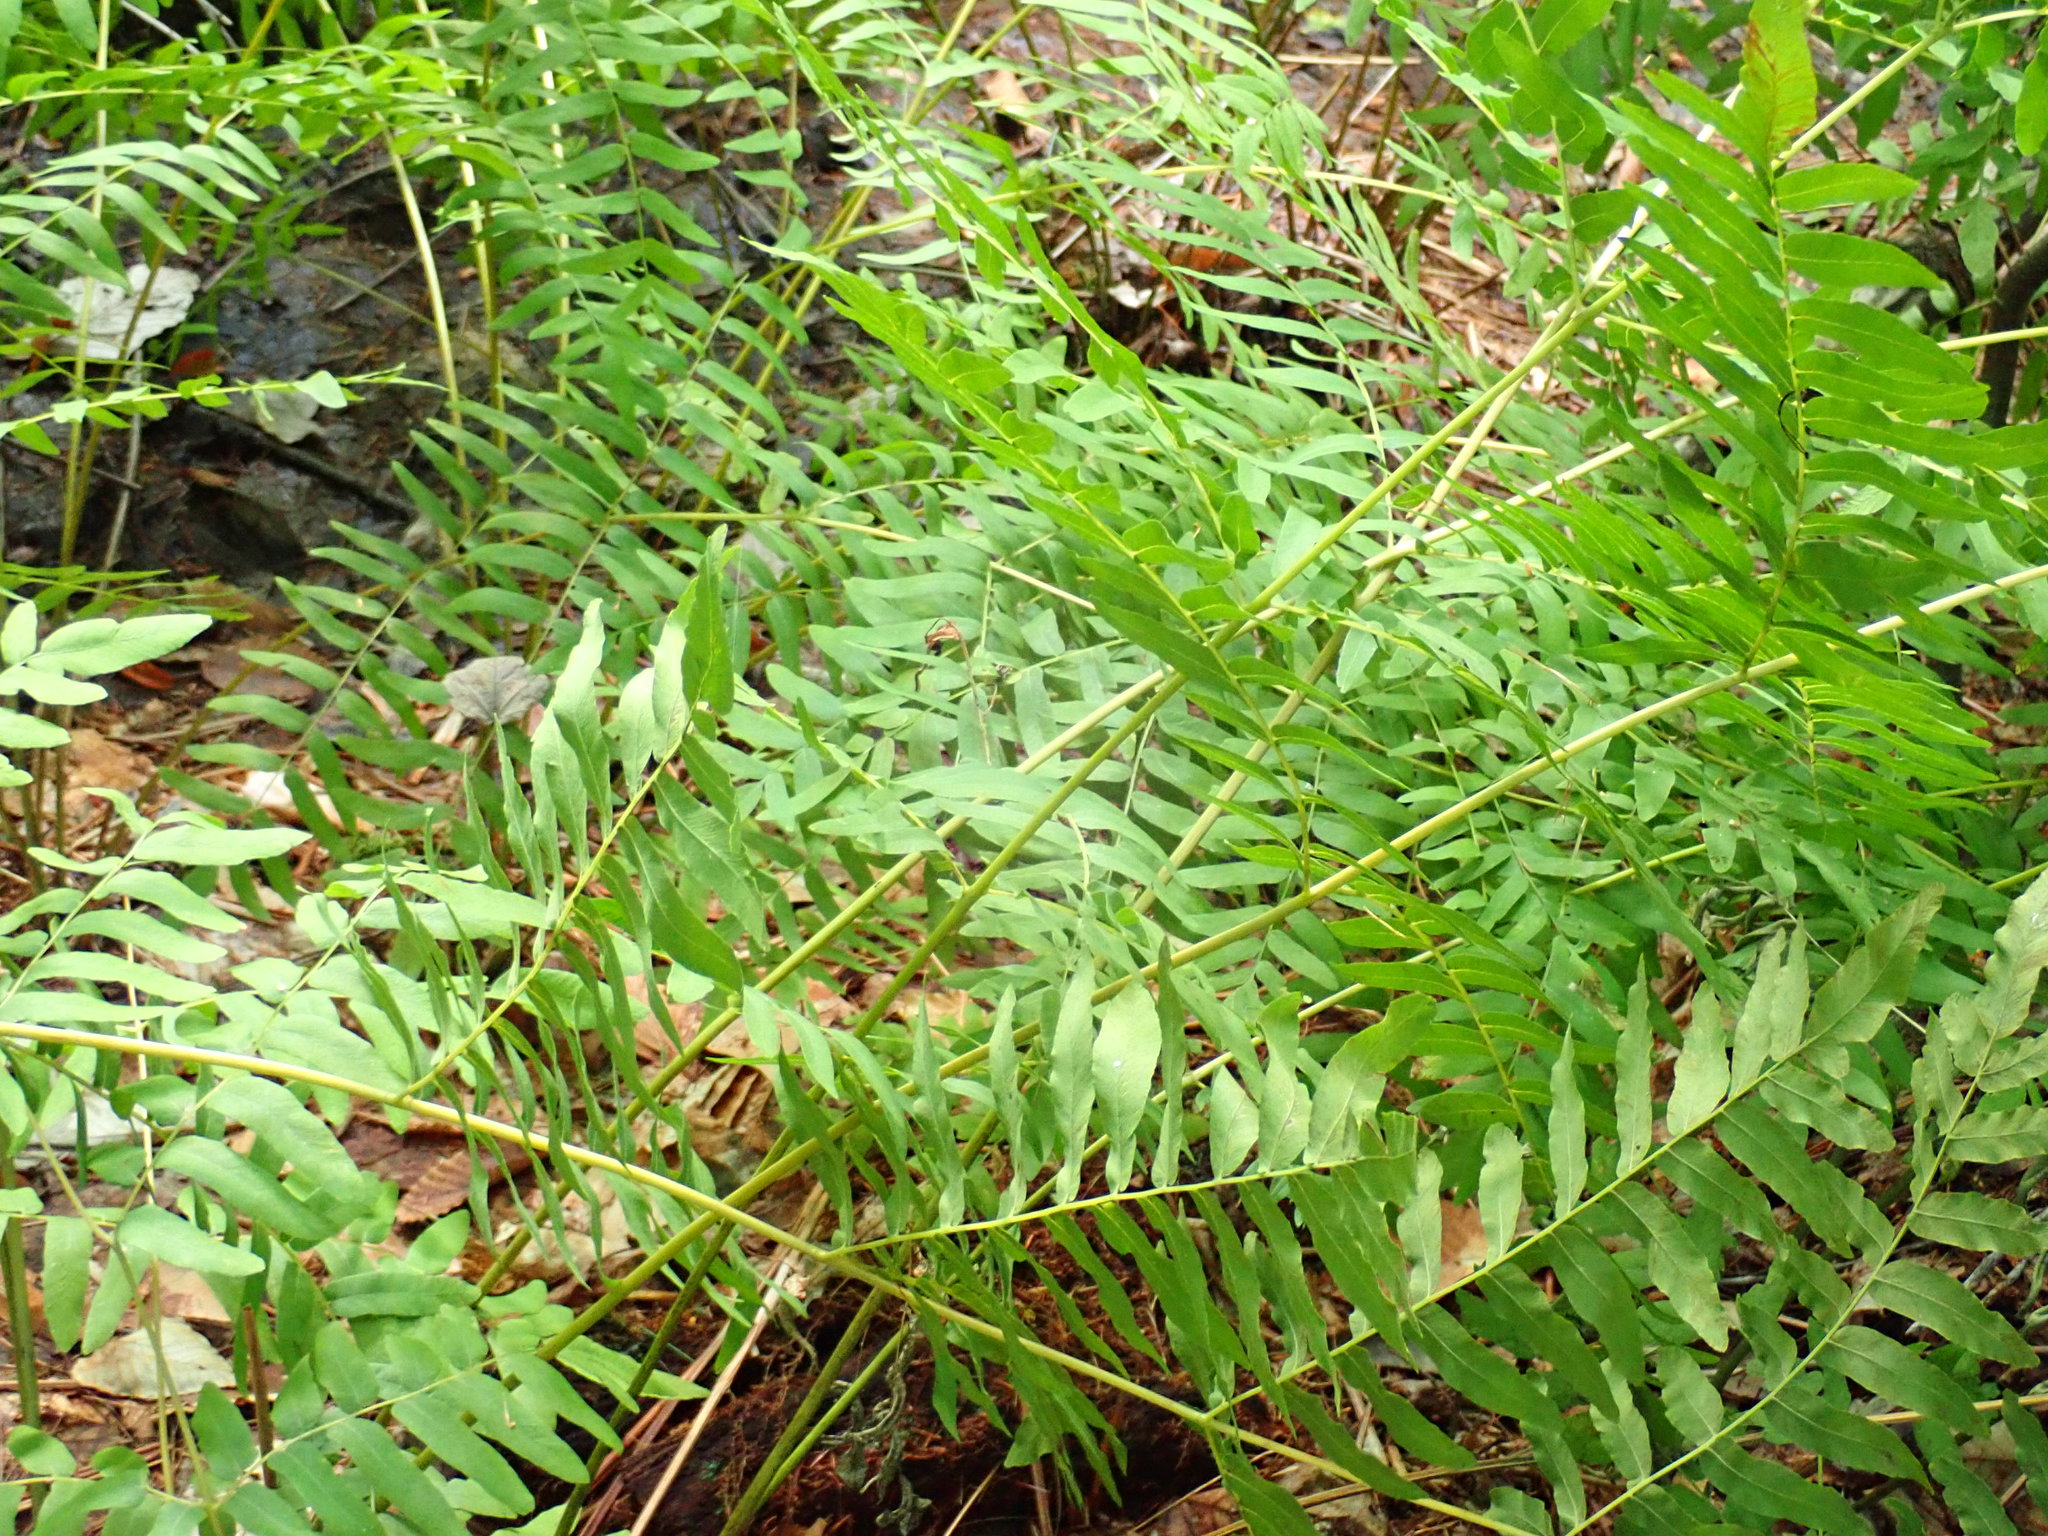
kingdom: Plantae
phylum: Tracheophyta
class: Polypodiopsida
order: Osmundales
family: Osmundaceae
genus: Osmunda
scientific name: Osmunda spectabilis
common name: American royal fern
